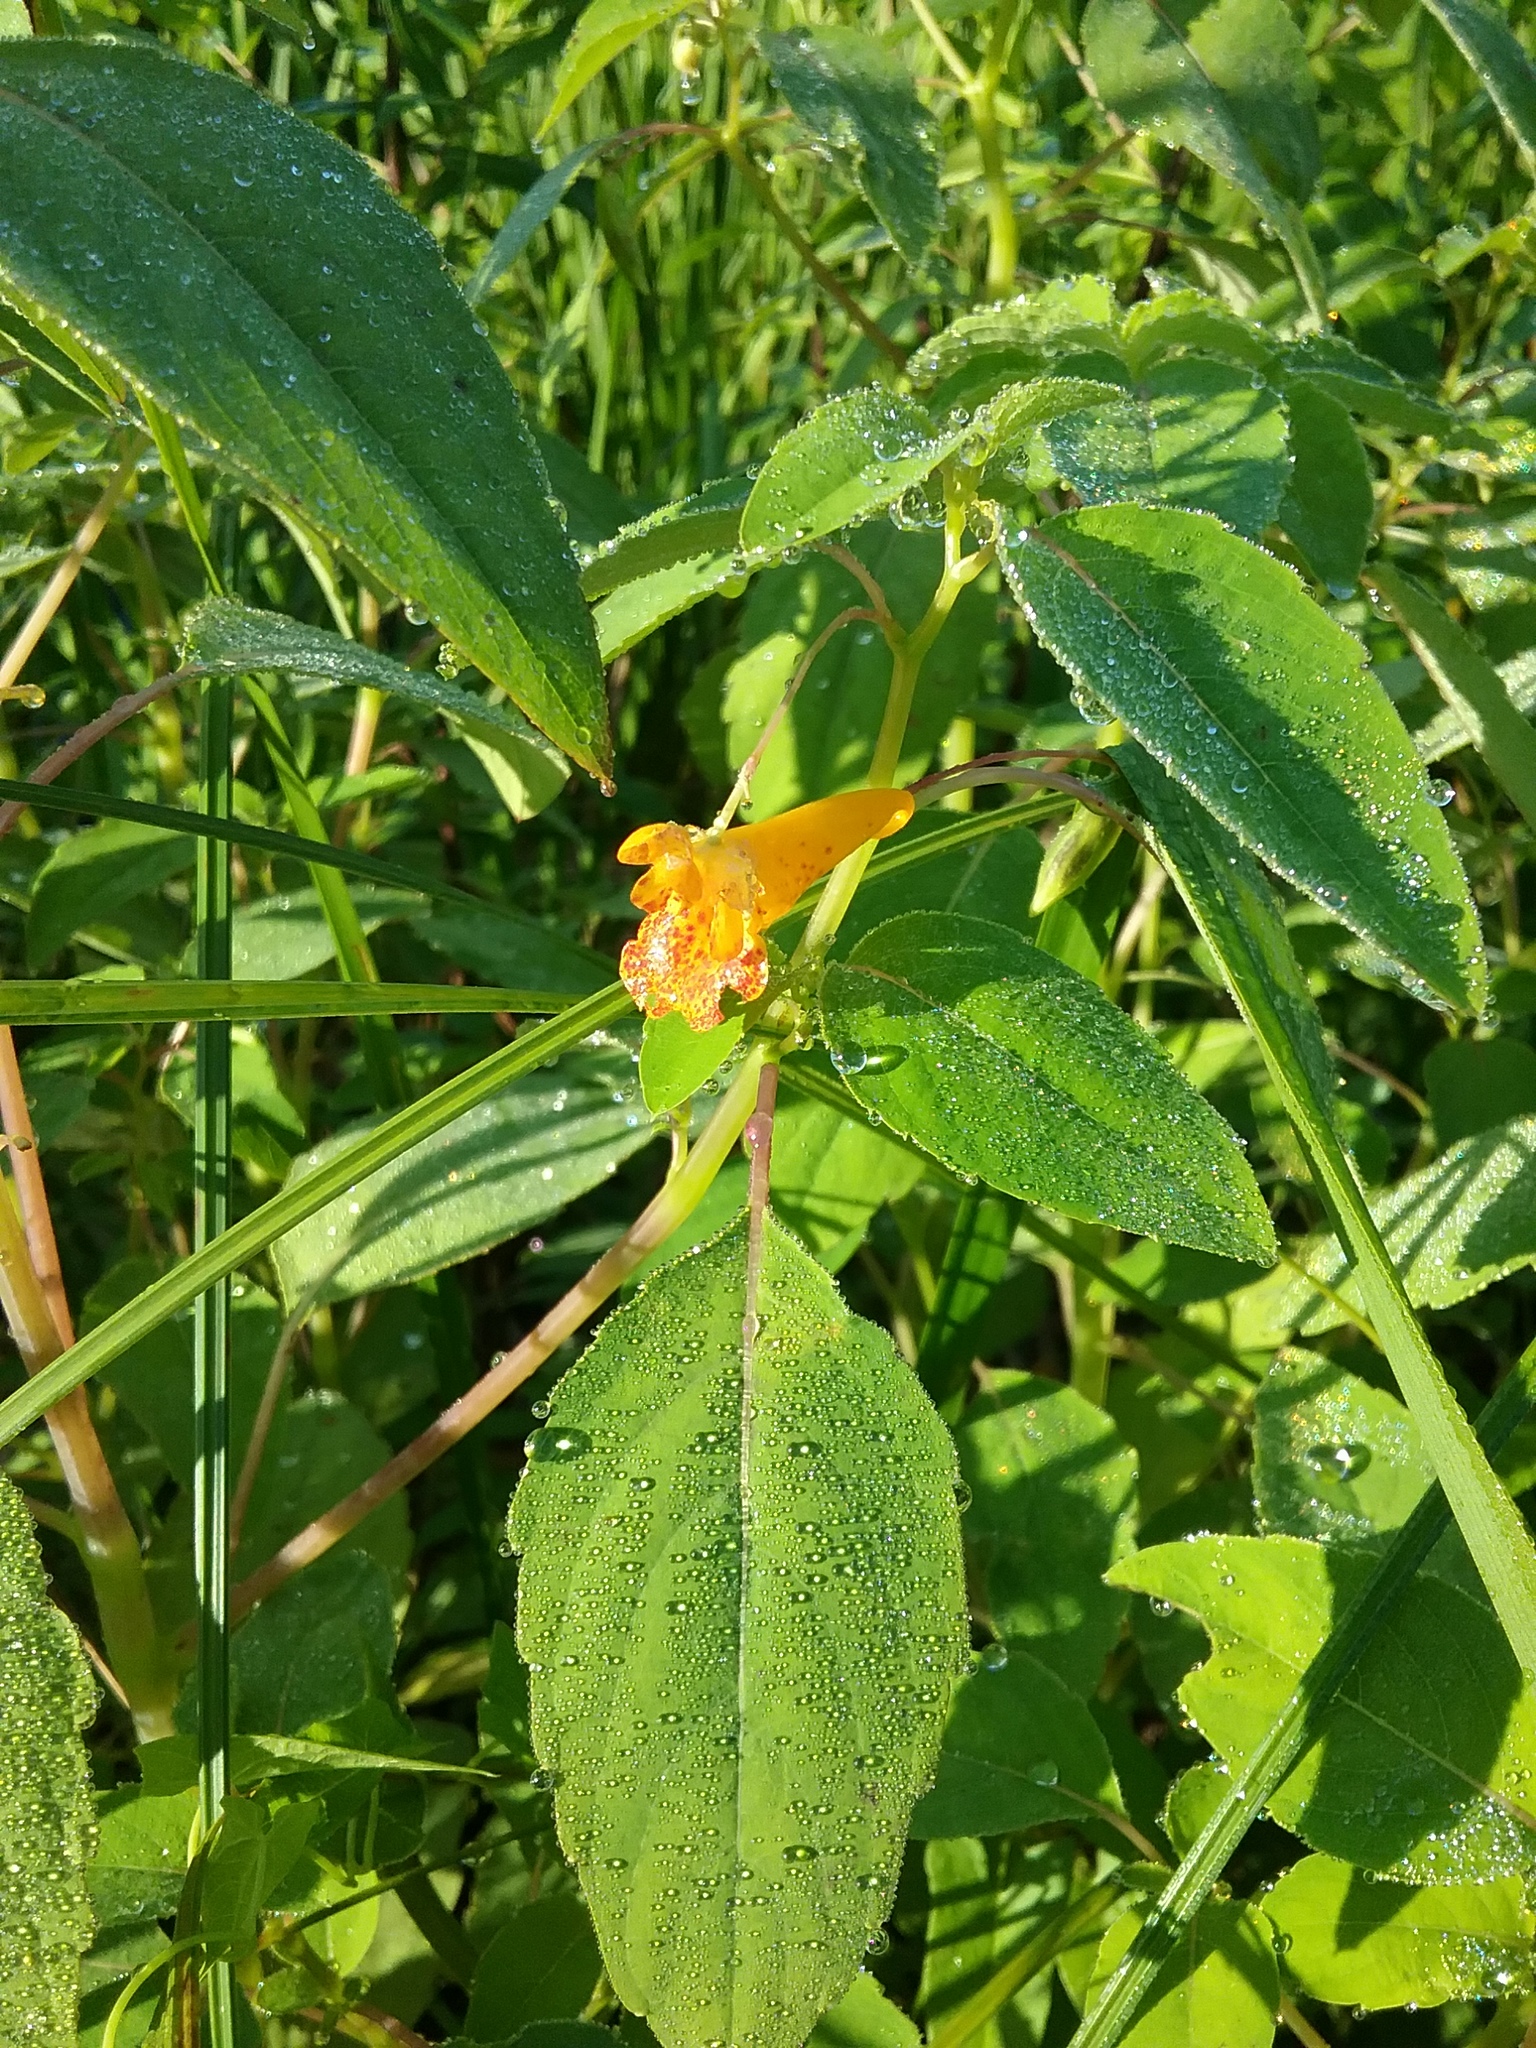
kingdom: Plantae
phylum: Tracheophyta
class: Magnoliopsida
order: Ericales
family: Balsaminaceae
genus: Impatiens
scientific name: Impatiens capensis
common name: Orange balsam
